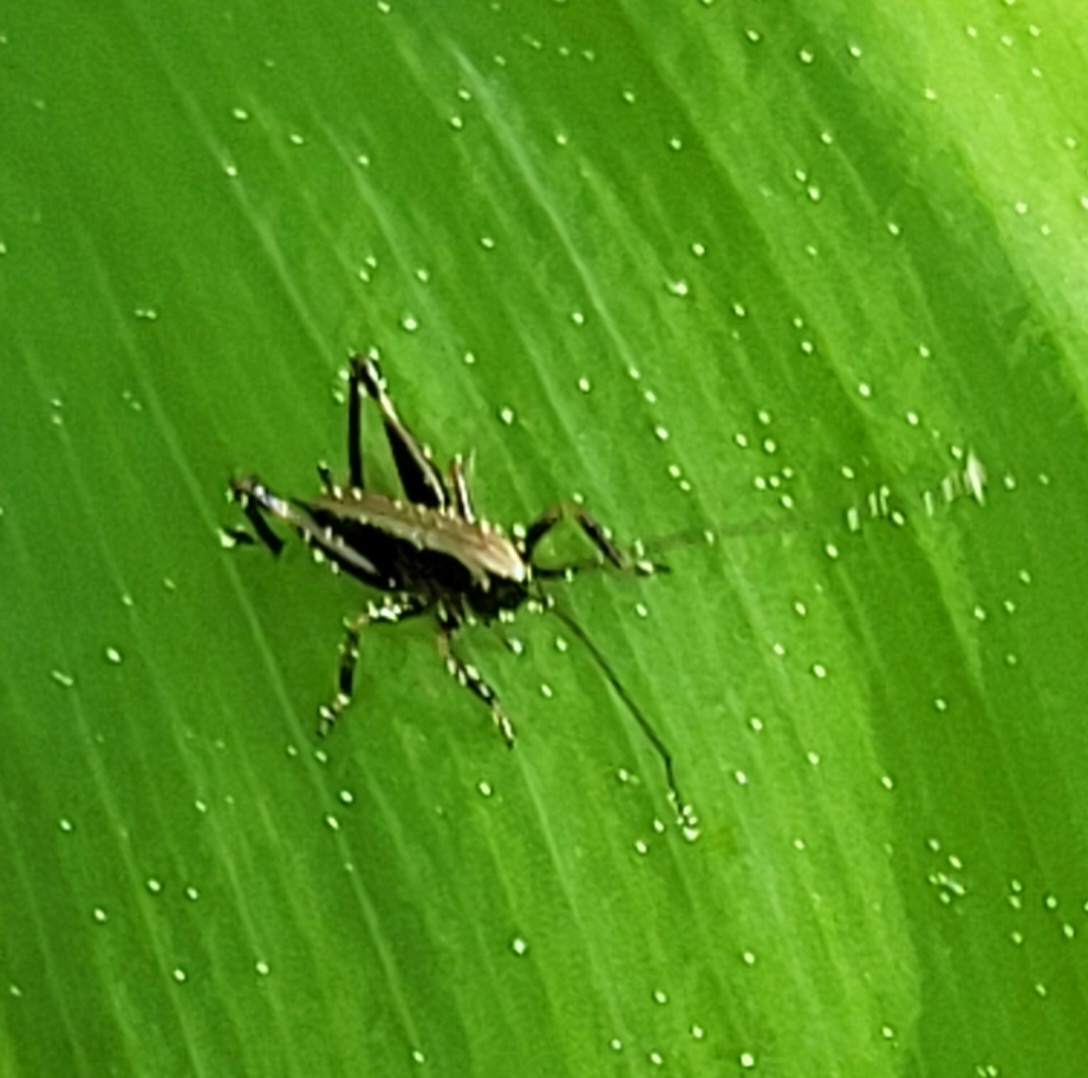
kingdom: Animalia
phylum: Arthropoda
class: Insecta
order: Orthoptera
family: Tettigoniidae
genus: Pholidoptera
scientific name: Pholidoptera griseoaptera
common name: Dark bush-cricket
